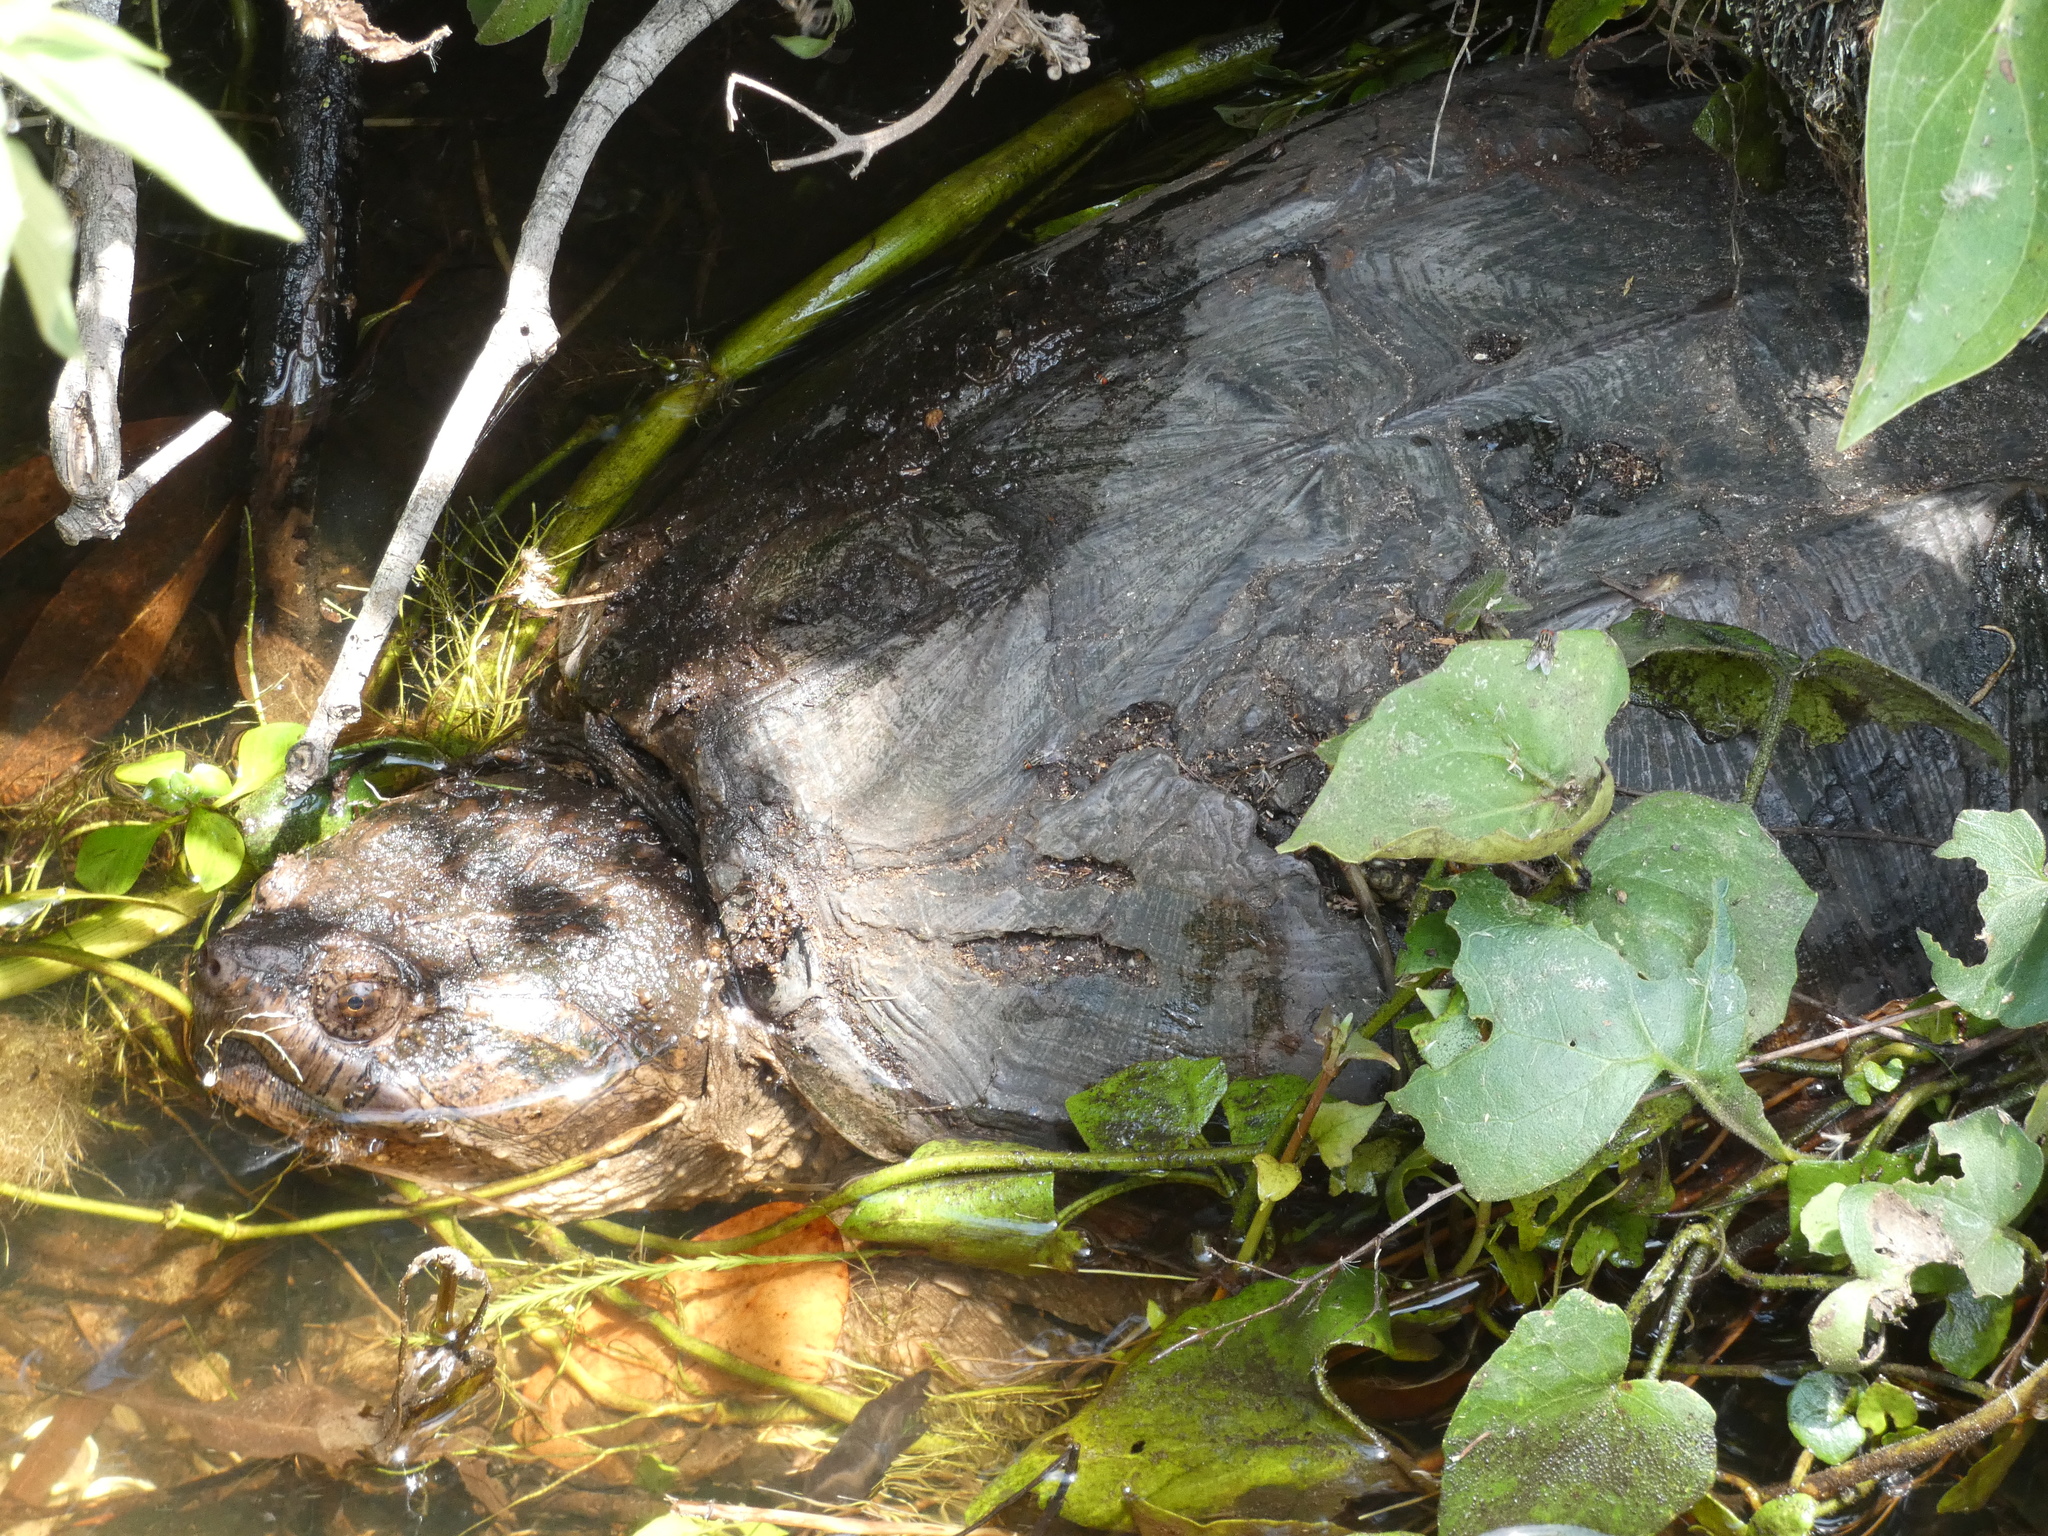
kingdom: Animalia
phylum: Chordata
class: Testudines
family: Chelydridae
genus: Chelydra
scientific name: Chelydra serpentina
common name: Common snapping turtle
